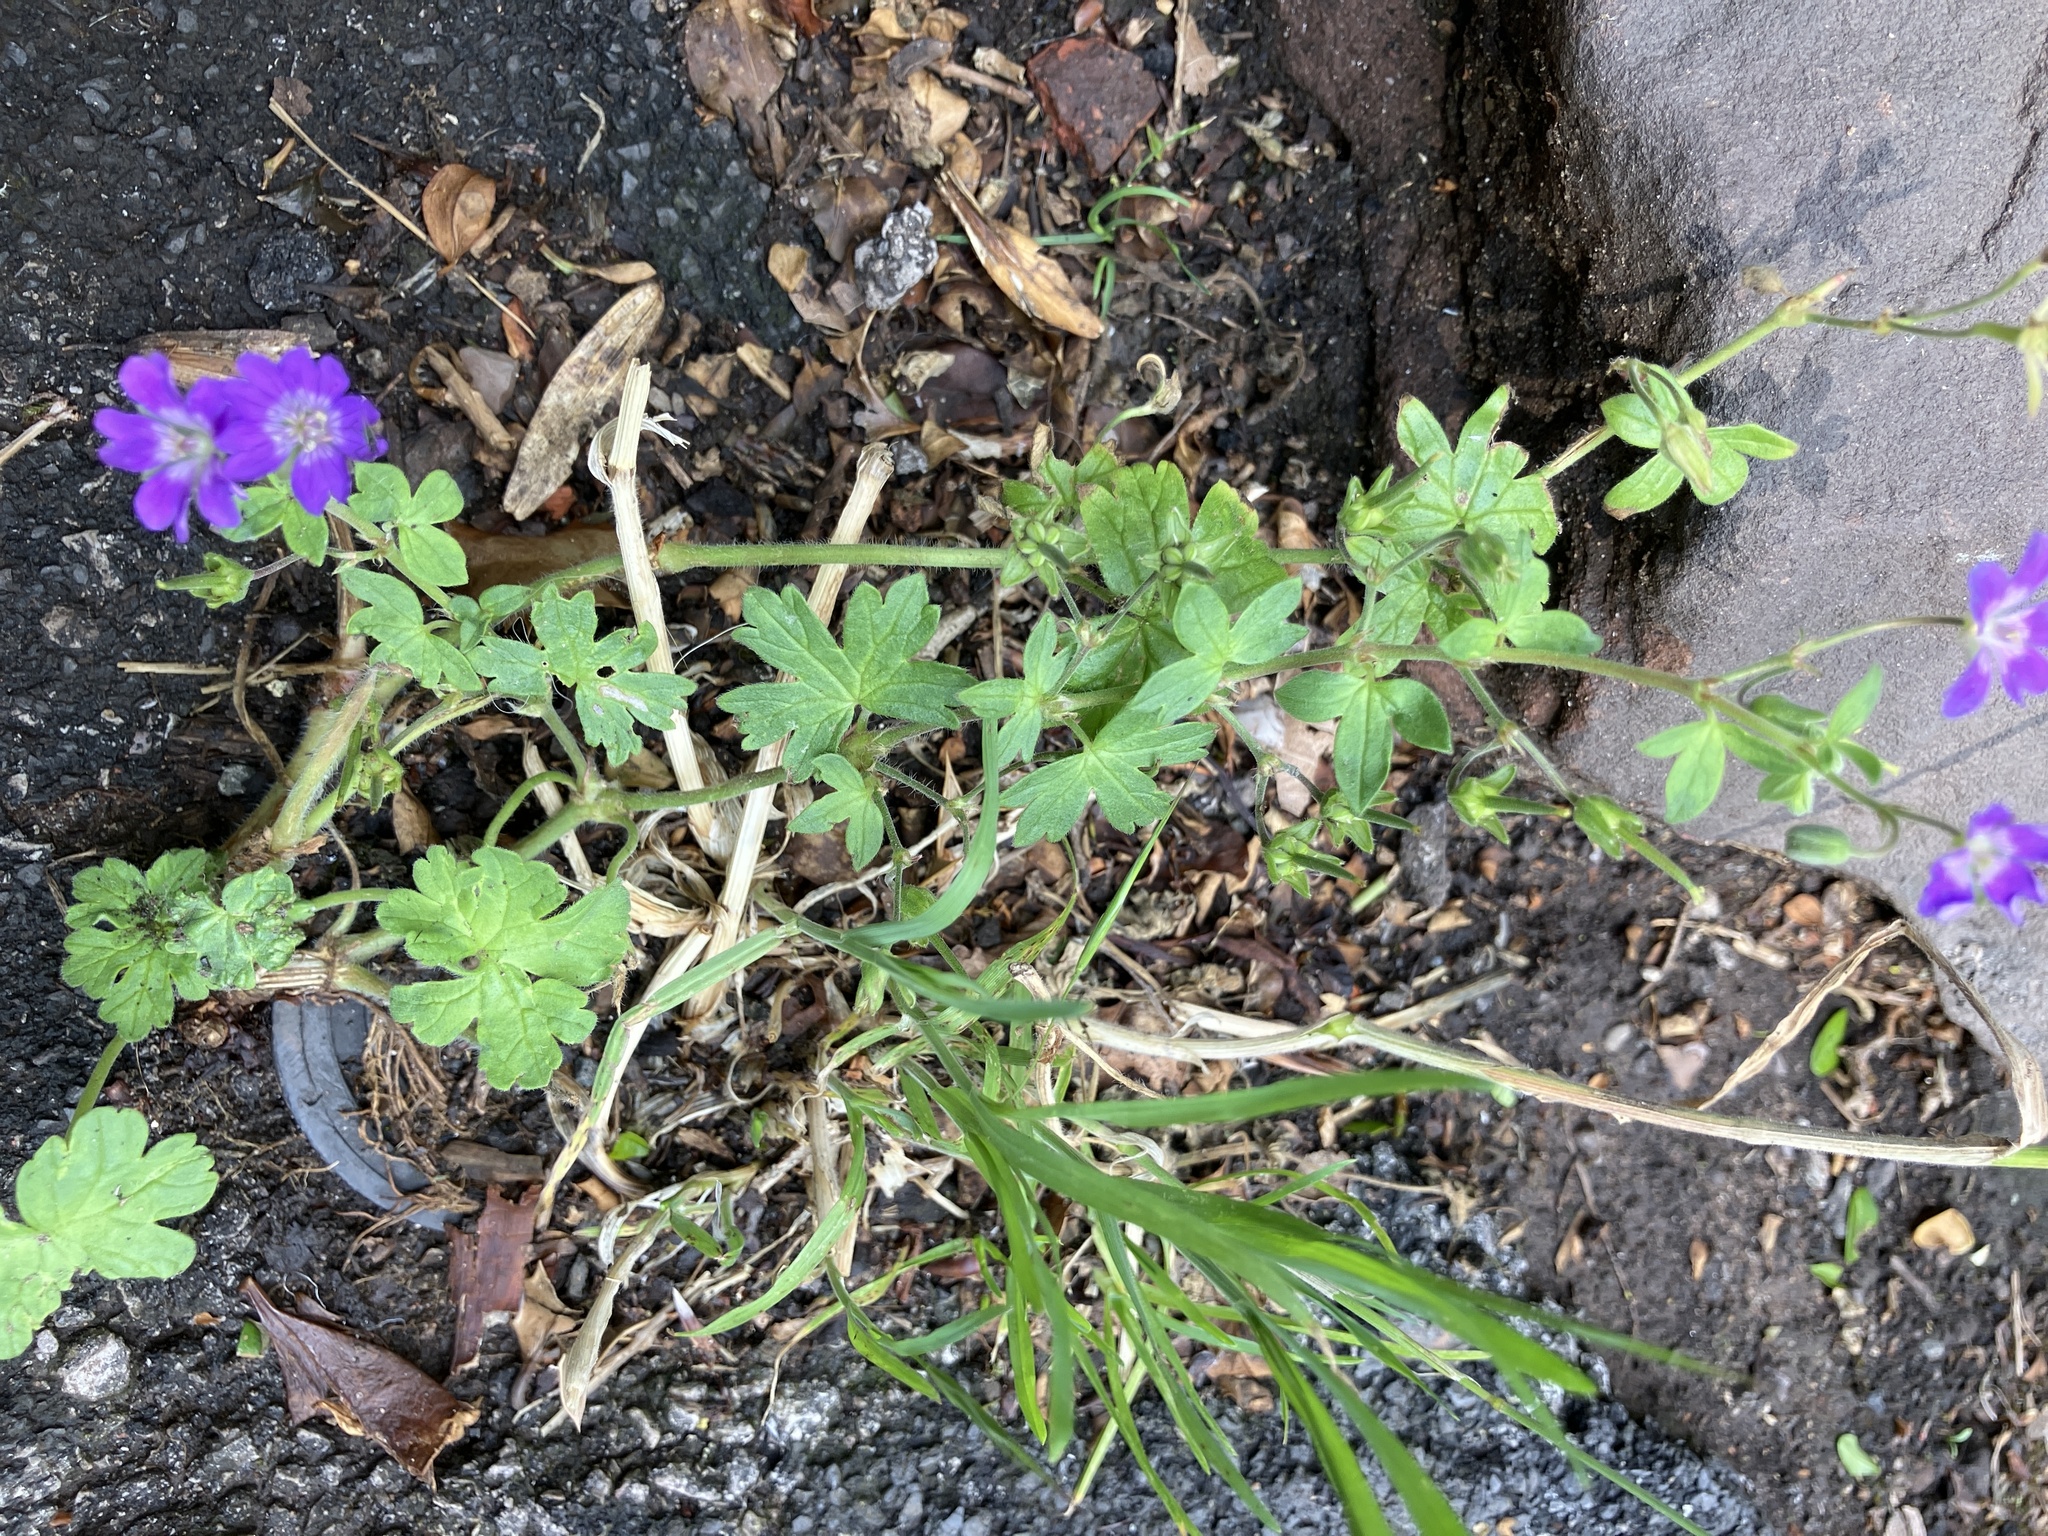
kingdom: Plantae
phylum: Tracheophyta
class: Magnoliopsida
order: Geraniales
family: Geraniaceae
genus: Geranium
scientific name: Geranium pyrenaicum
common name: Hedgerow crane's-bill
